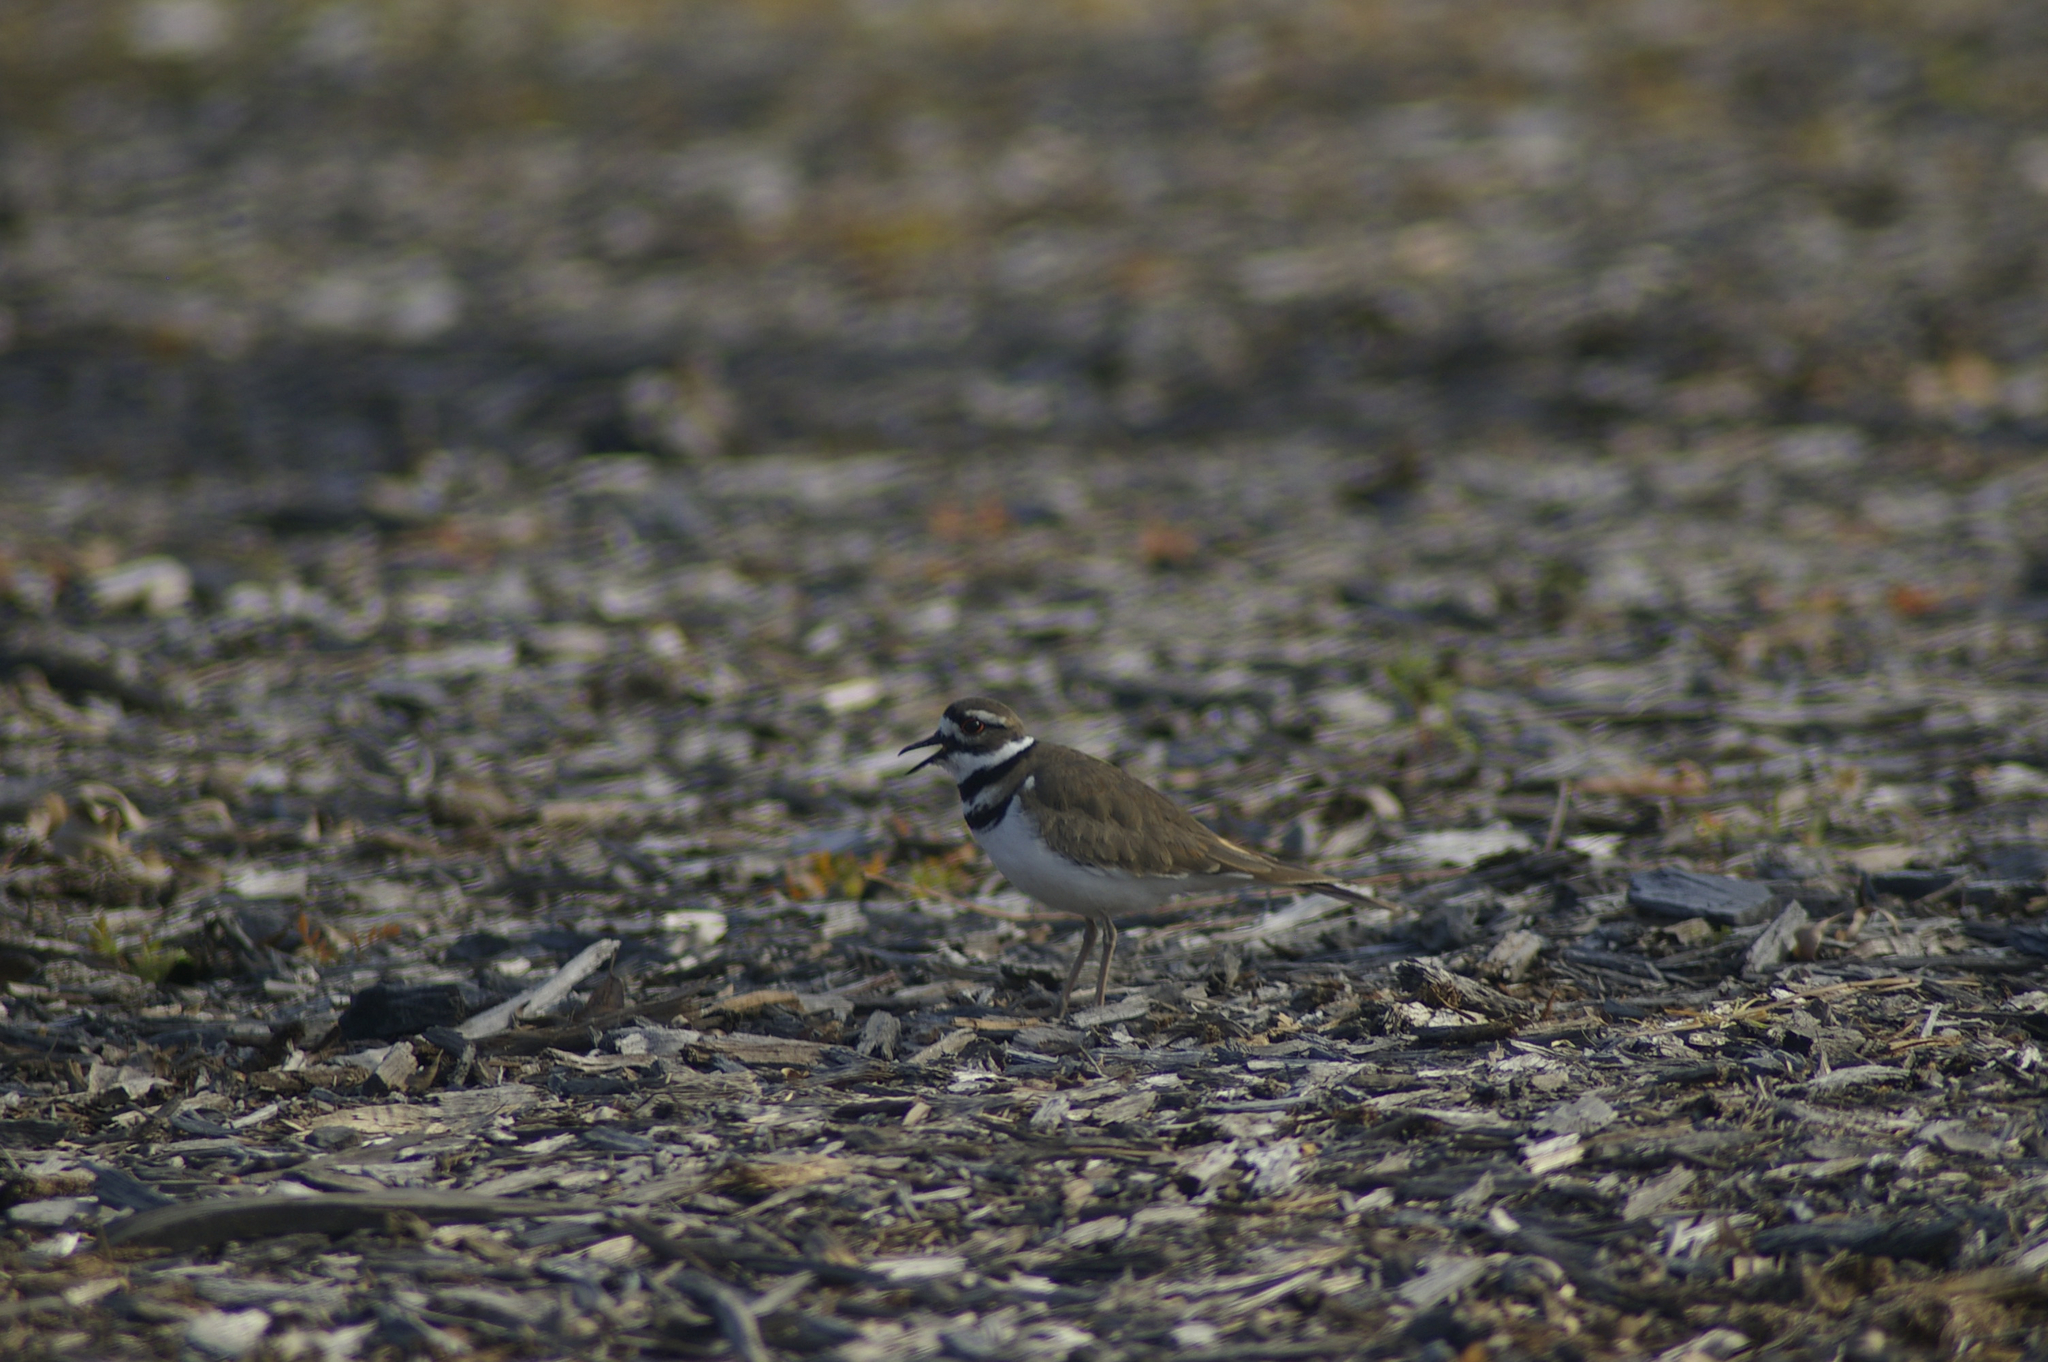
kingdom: Animalia
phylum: Chordata
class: Aves
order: Charadriiformes
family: Charadriidae
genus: Charadrius
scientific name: Charadrius vociferus
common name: Killdeer
